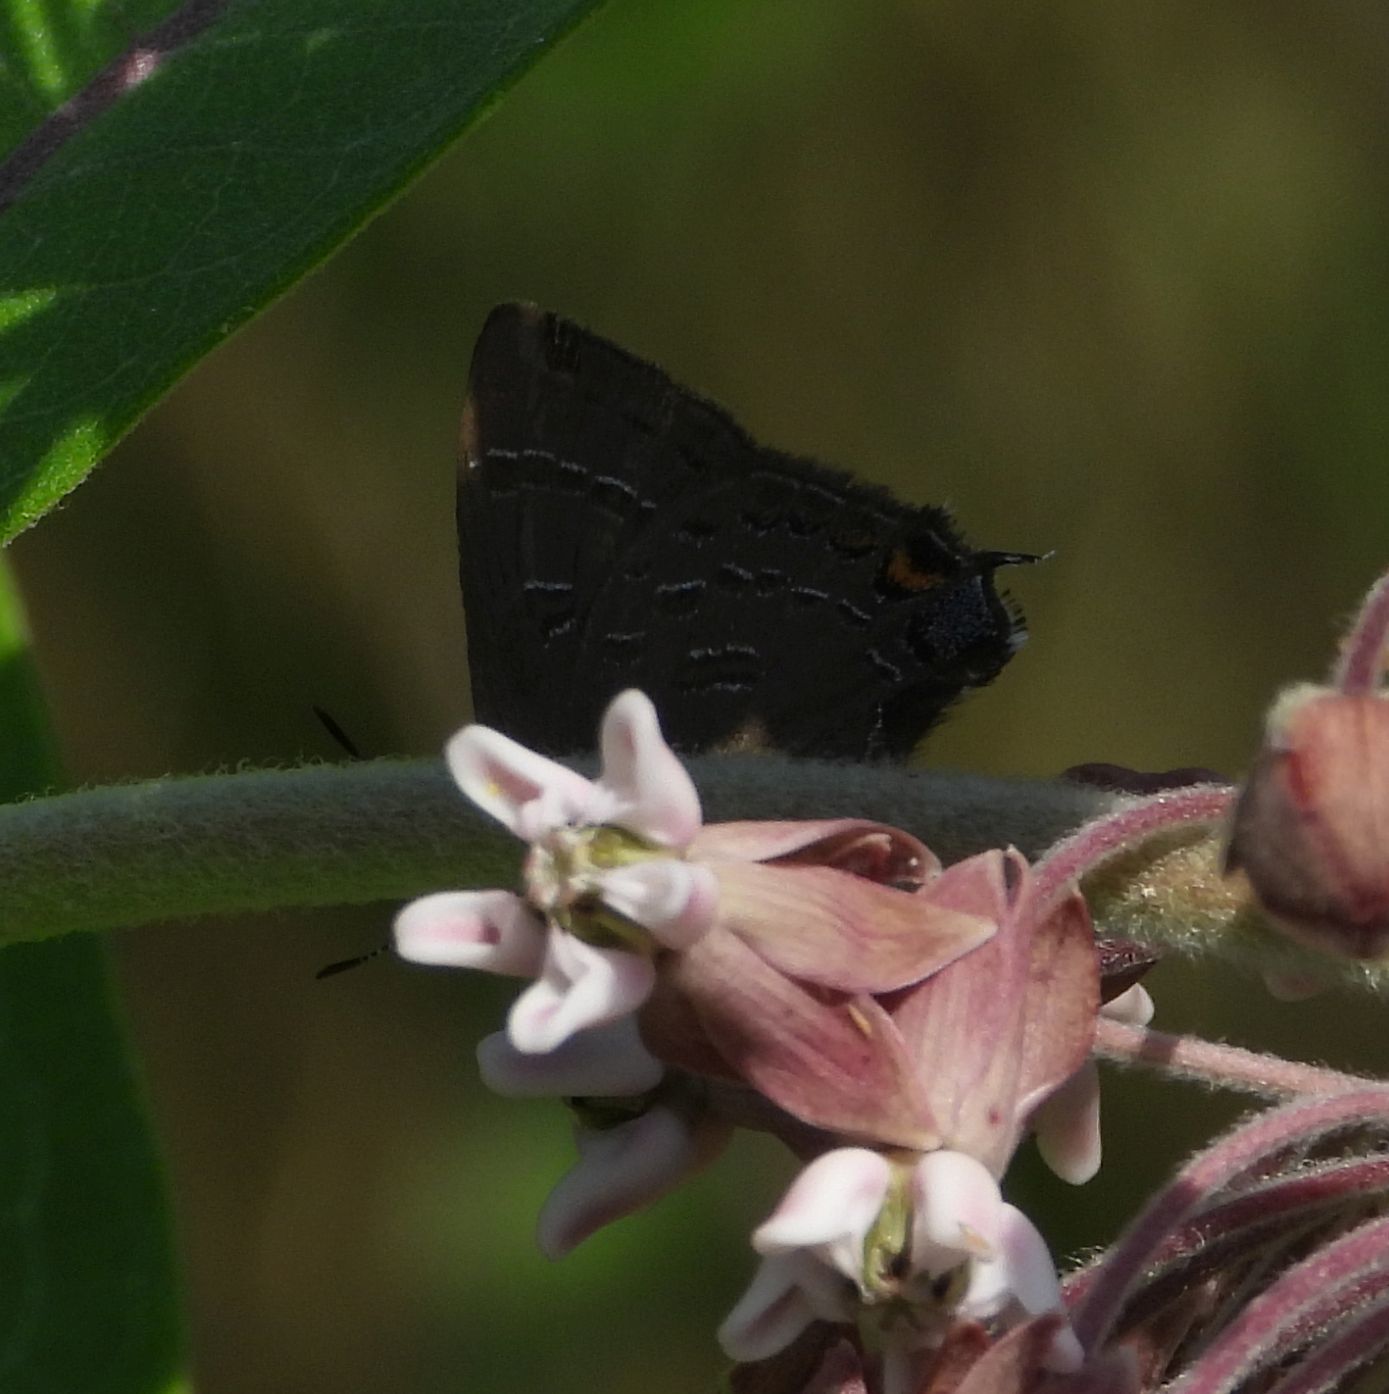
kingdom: Animalia
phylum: Arthropoda
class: Insecta
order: Lepidoptera
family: Lycaenidae
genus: Satyrium
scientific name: Satyrium calanus
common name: Banded hairstreak
